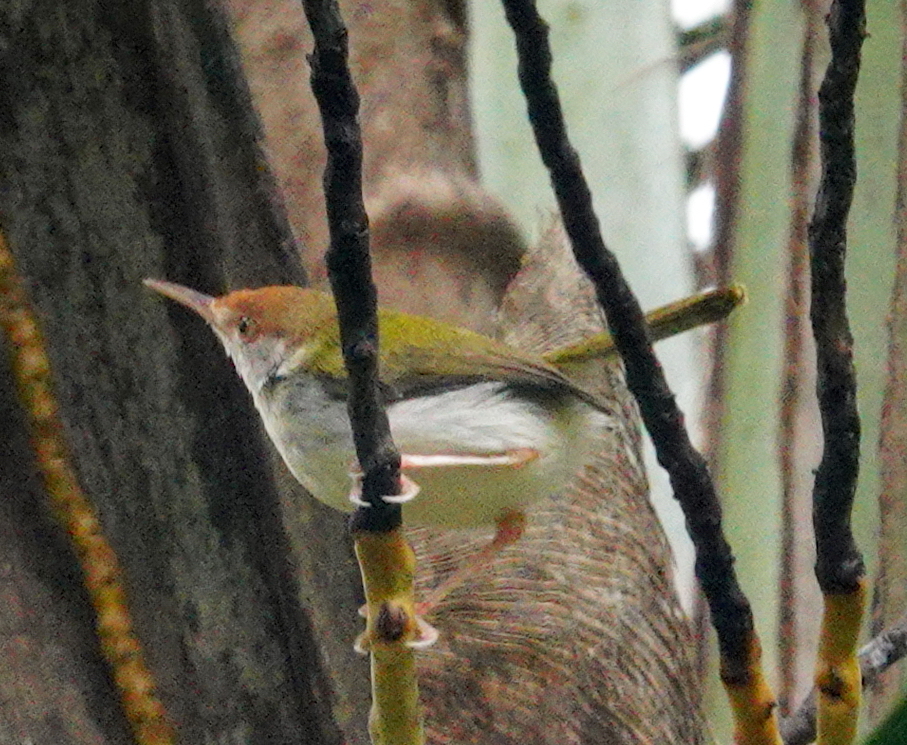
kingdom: Animalia
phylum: Chordata
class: Aves
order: Passeriformes
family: Cisticolidae
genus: Orthotomus
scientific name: Orthotomus sutorius
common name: Common tailorbird
